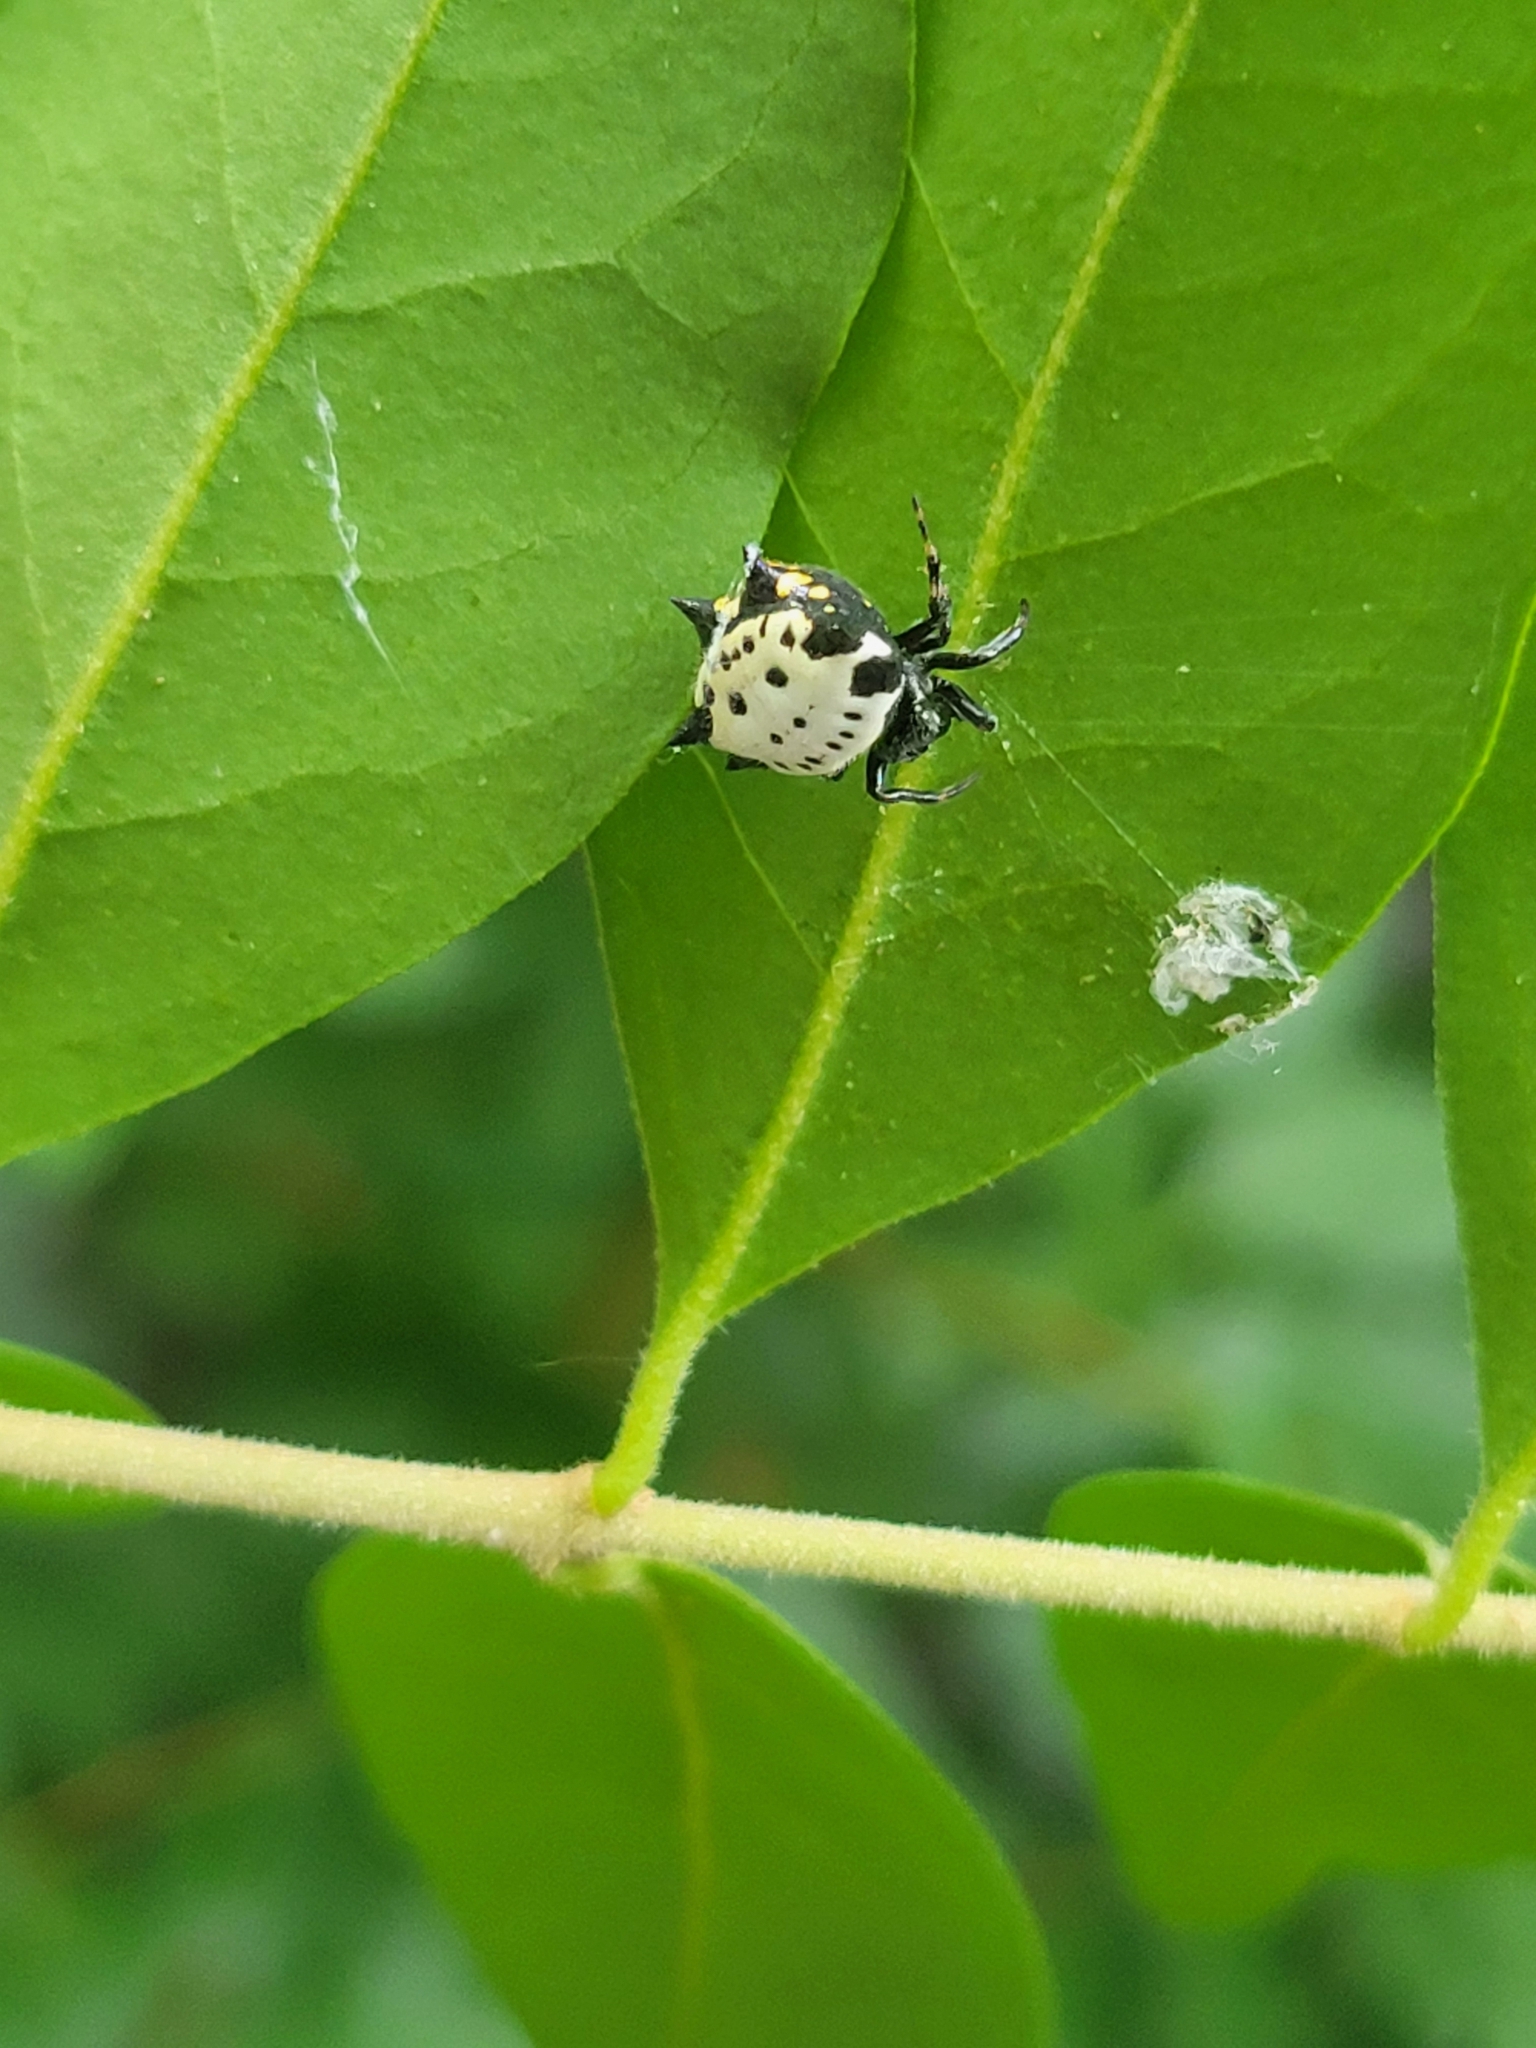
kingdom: Animalia
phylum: Arthropoda
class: Arachnida
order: Araneae
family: Araneidae
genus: Gasteracantha
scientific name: Gasteracantha cancriformis
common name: Orb weavers
